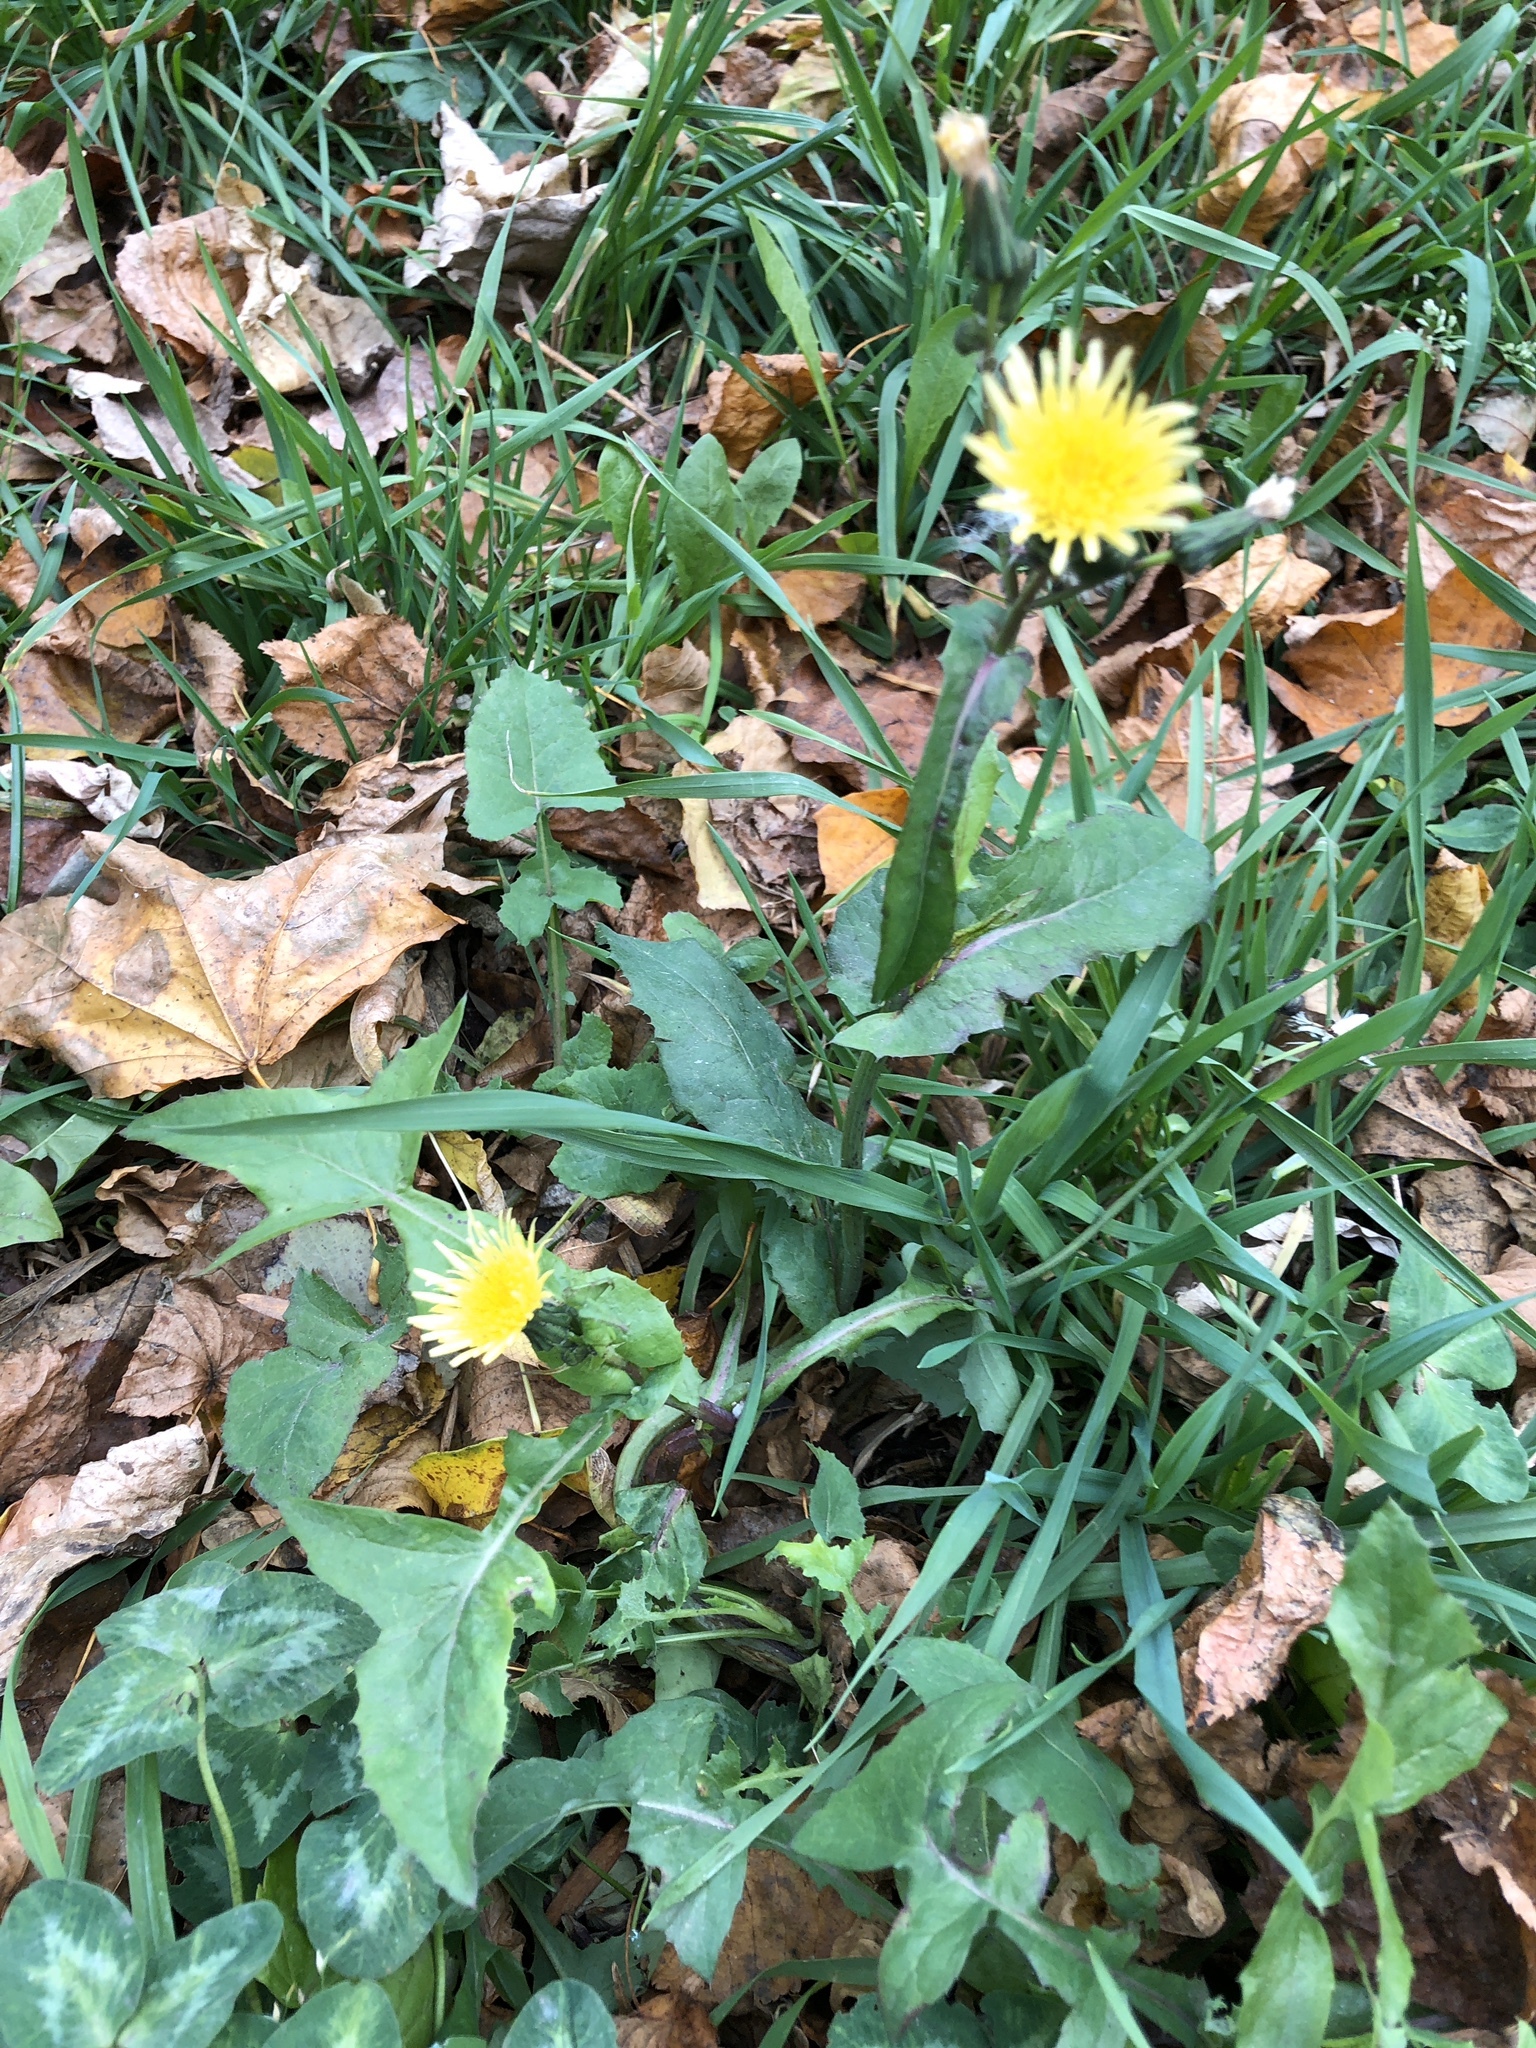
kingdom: Plantae
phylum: Tracheophyta
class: Magnoliopsida
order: Asterales
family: Asteraceae
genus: Sonchus
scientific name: Sonchus oleraceus
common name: Common sowthistle
